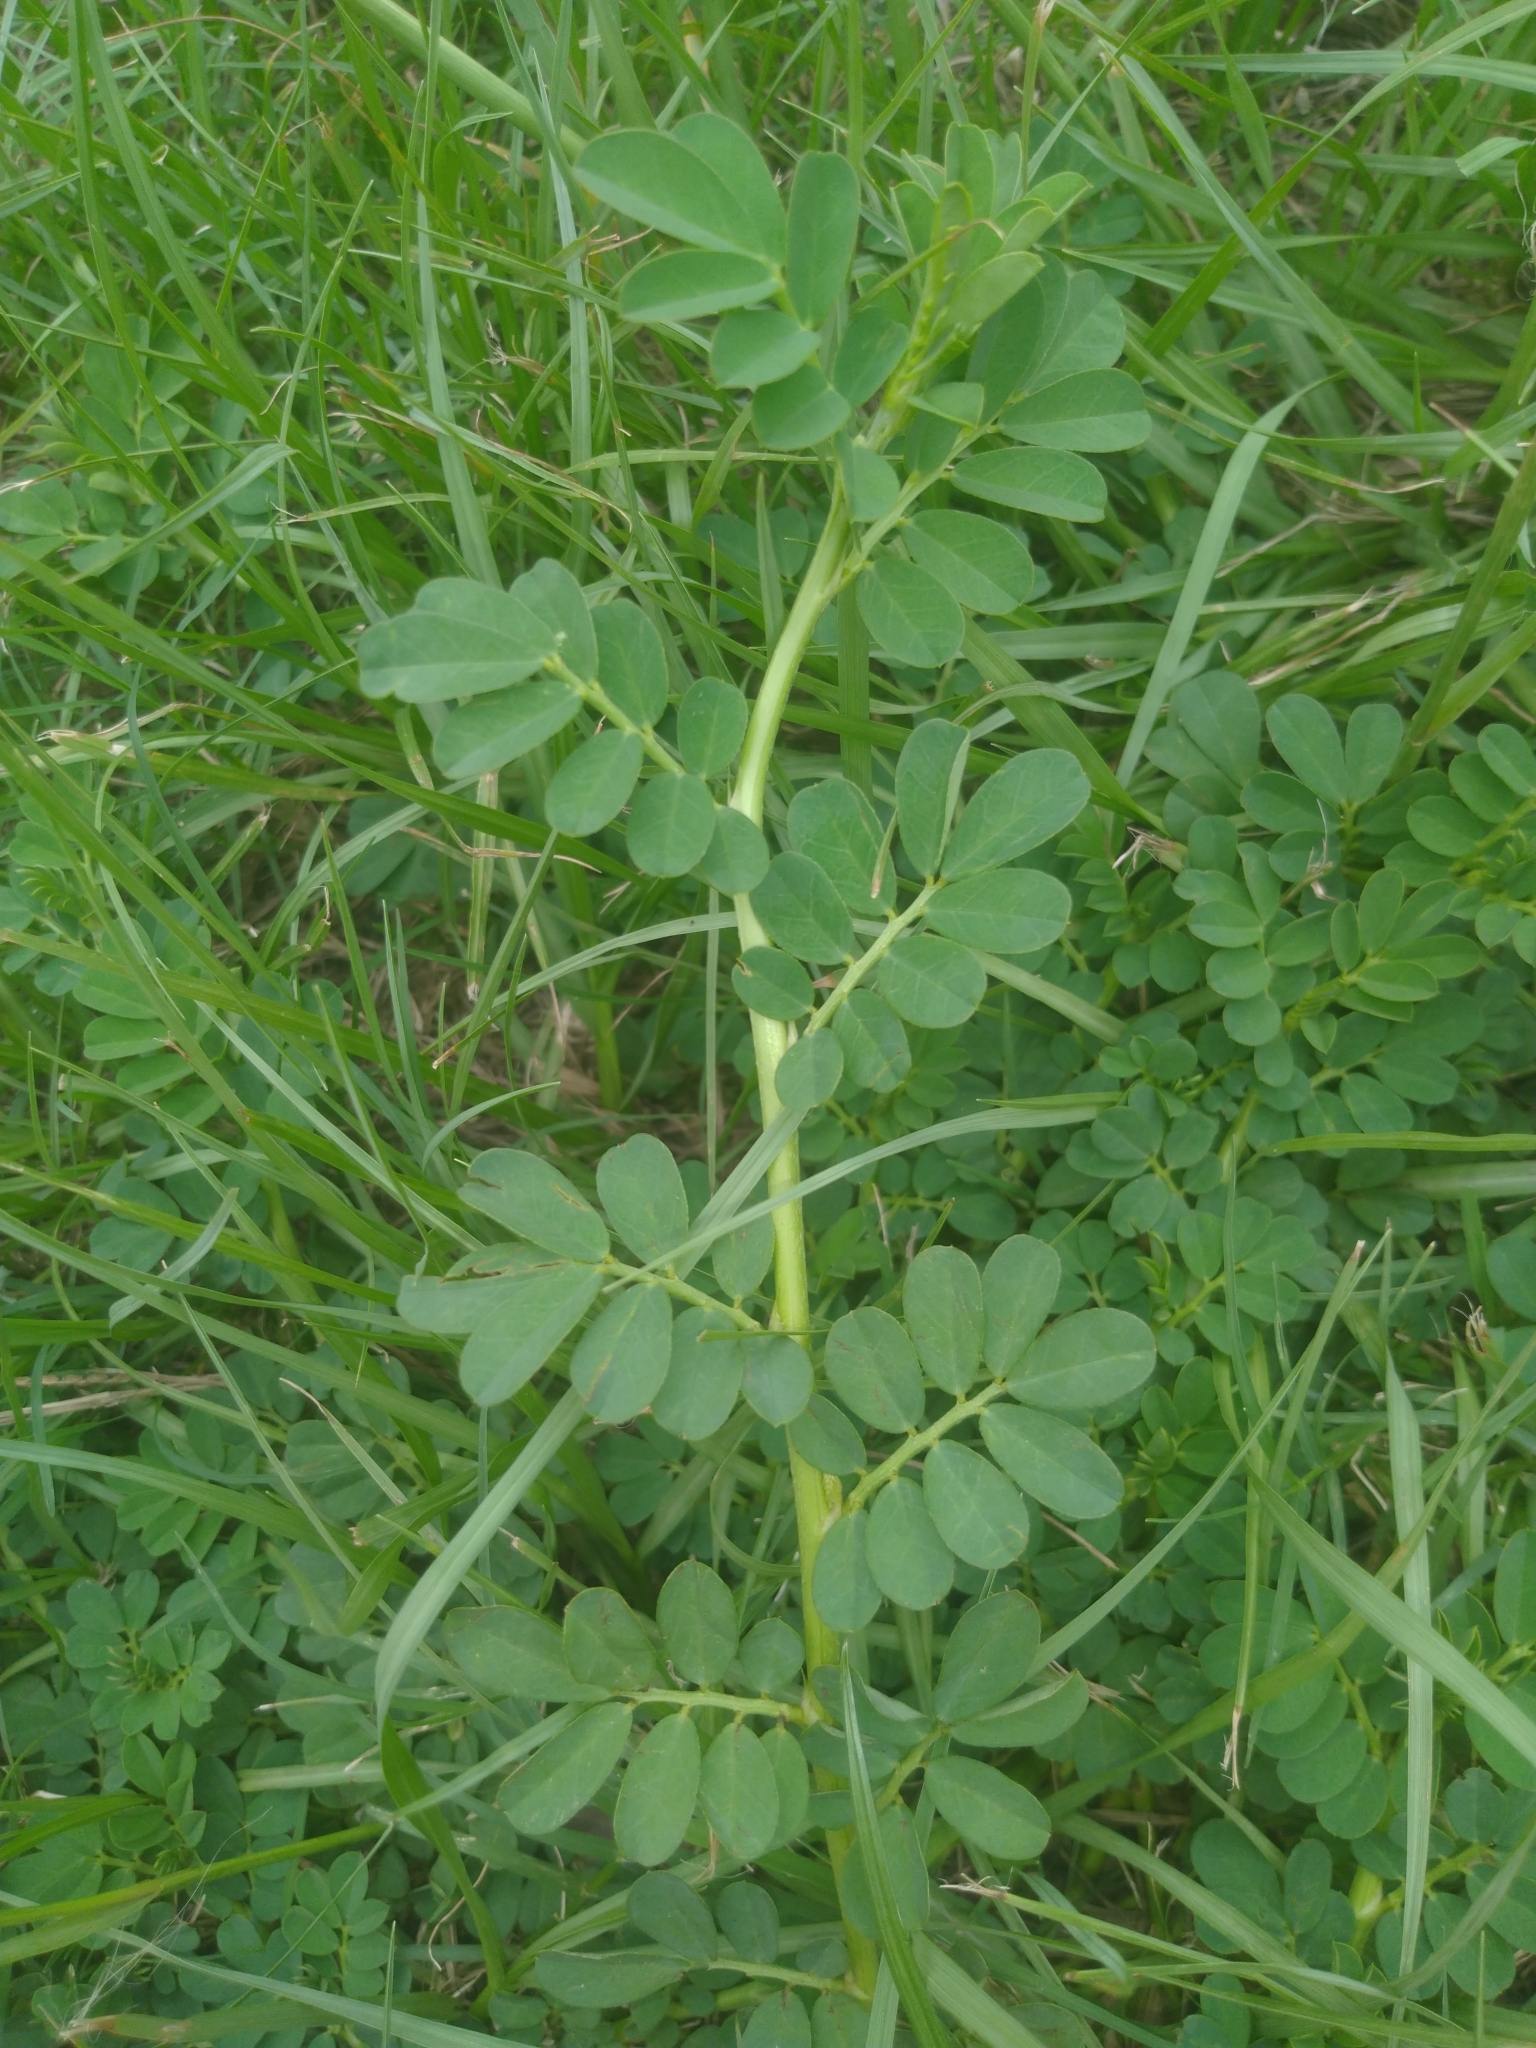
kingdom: Plantae
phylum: Tracheophyta
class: Magnoliopsida
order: Fabales
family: Fabaceae
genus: Indigofera
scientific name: Indigofera spicata
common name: Creeping indigo
